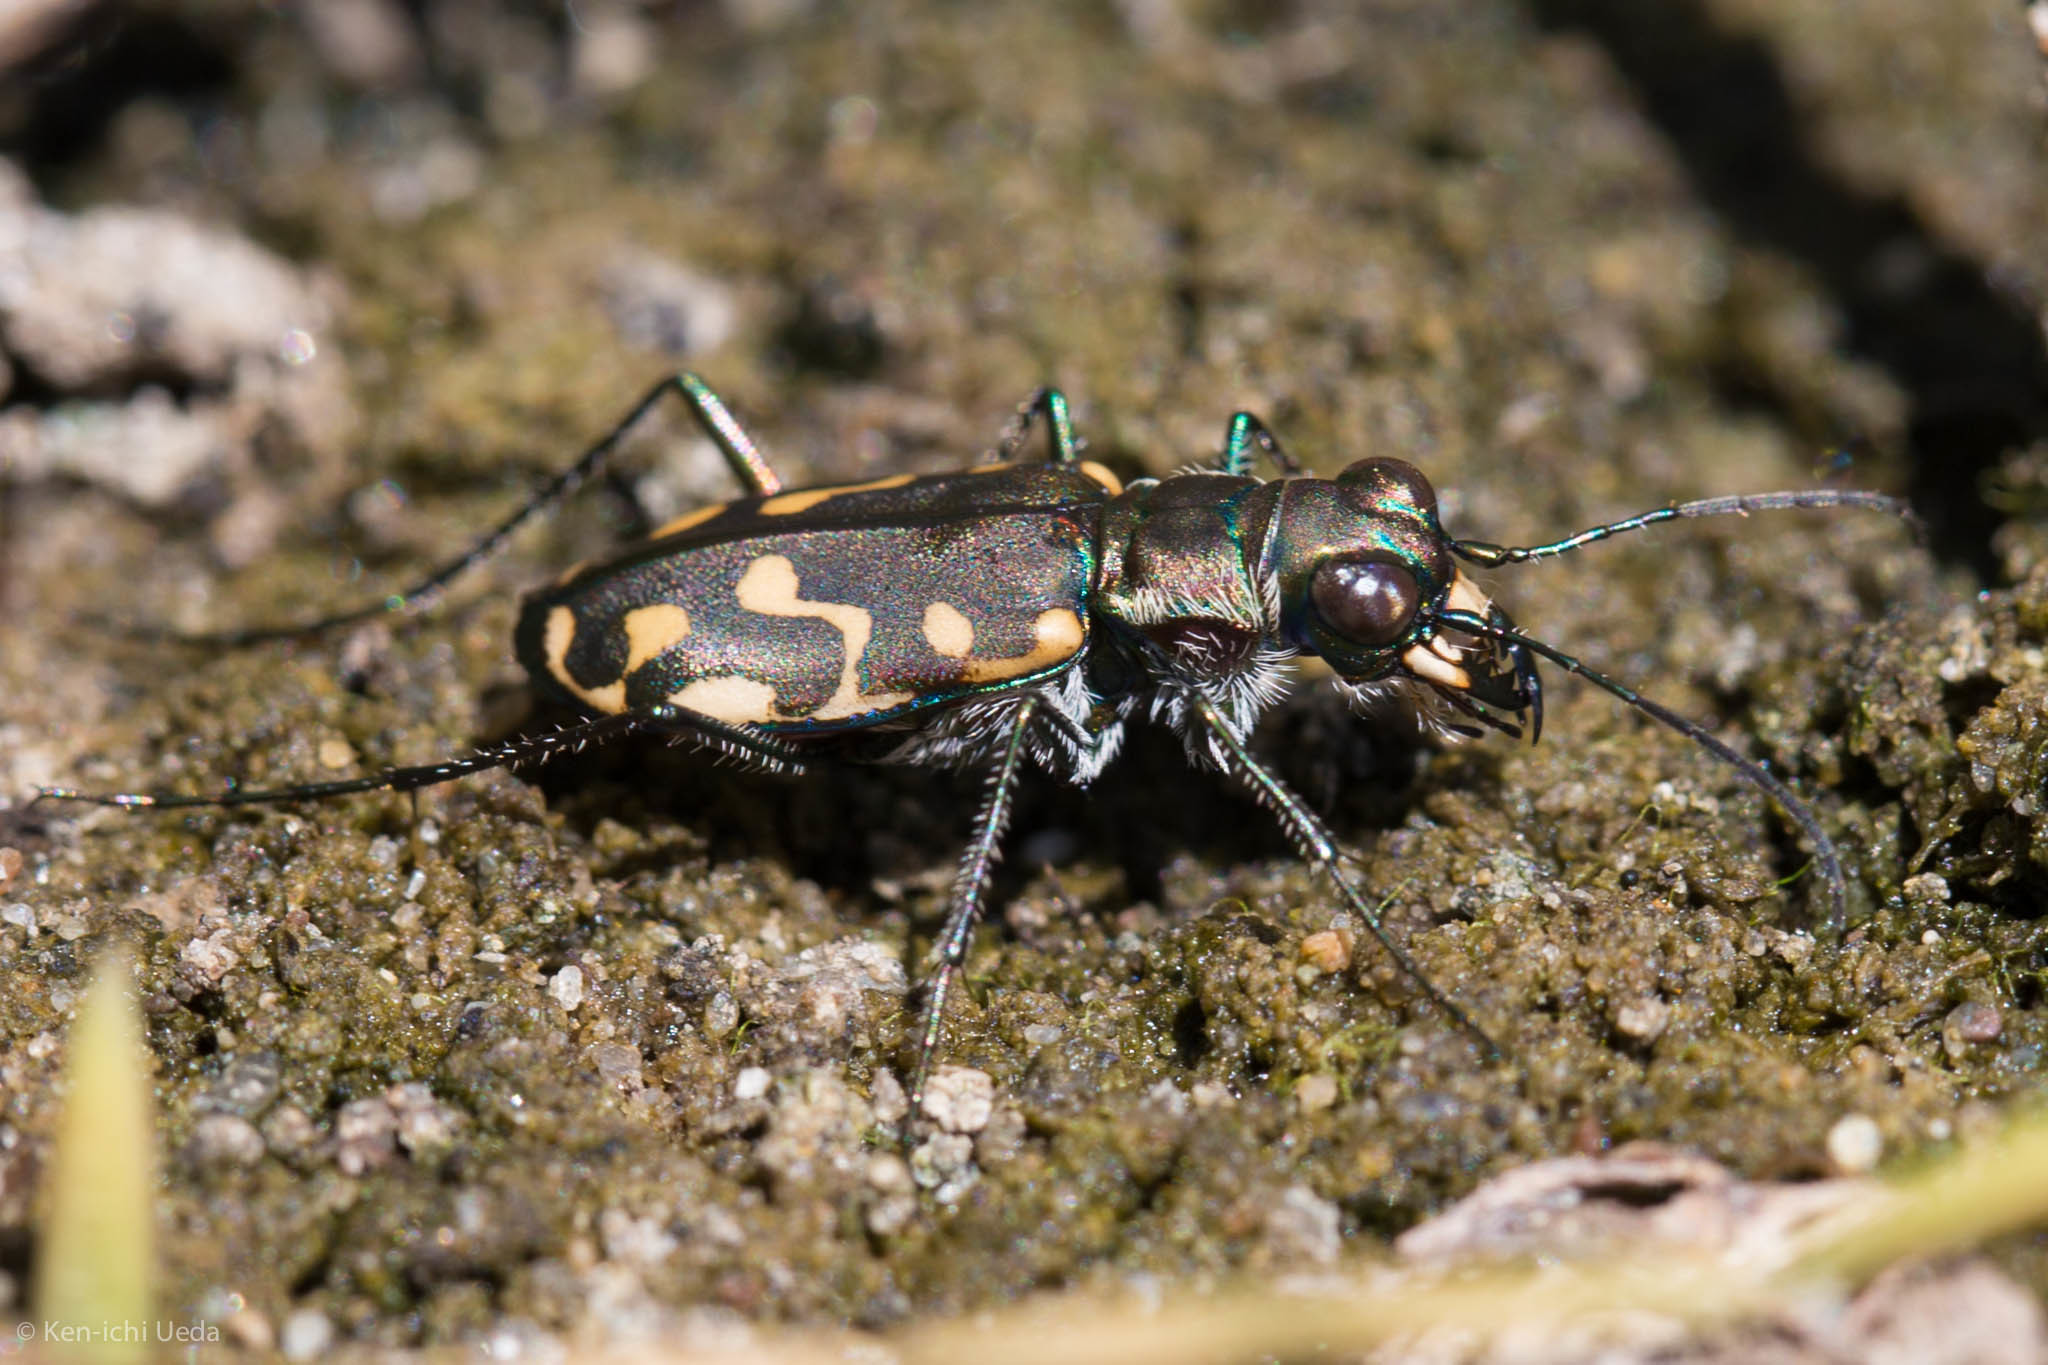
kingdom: Animalia
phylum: Arthropoda
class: Insecta
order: Coleoptera
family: Carabidae
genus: Cicindela
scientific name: Cicindela hemorrhagica
